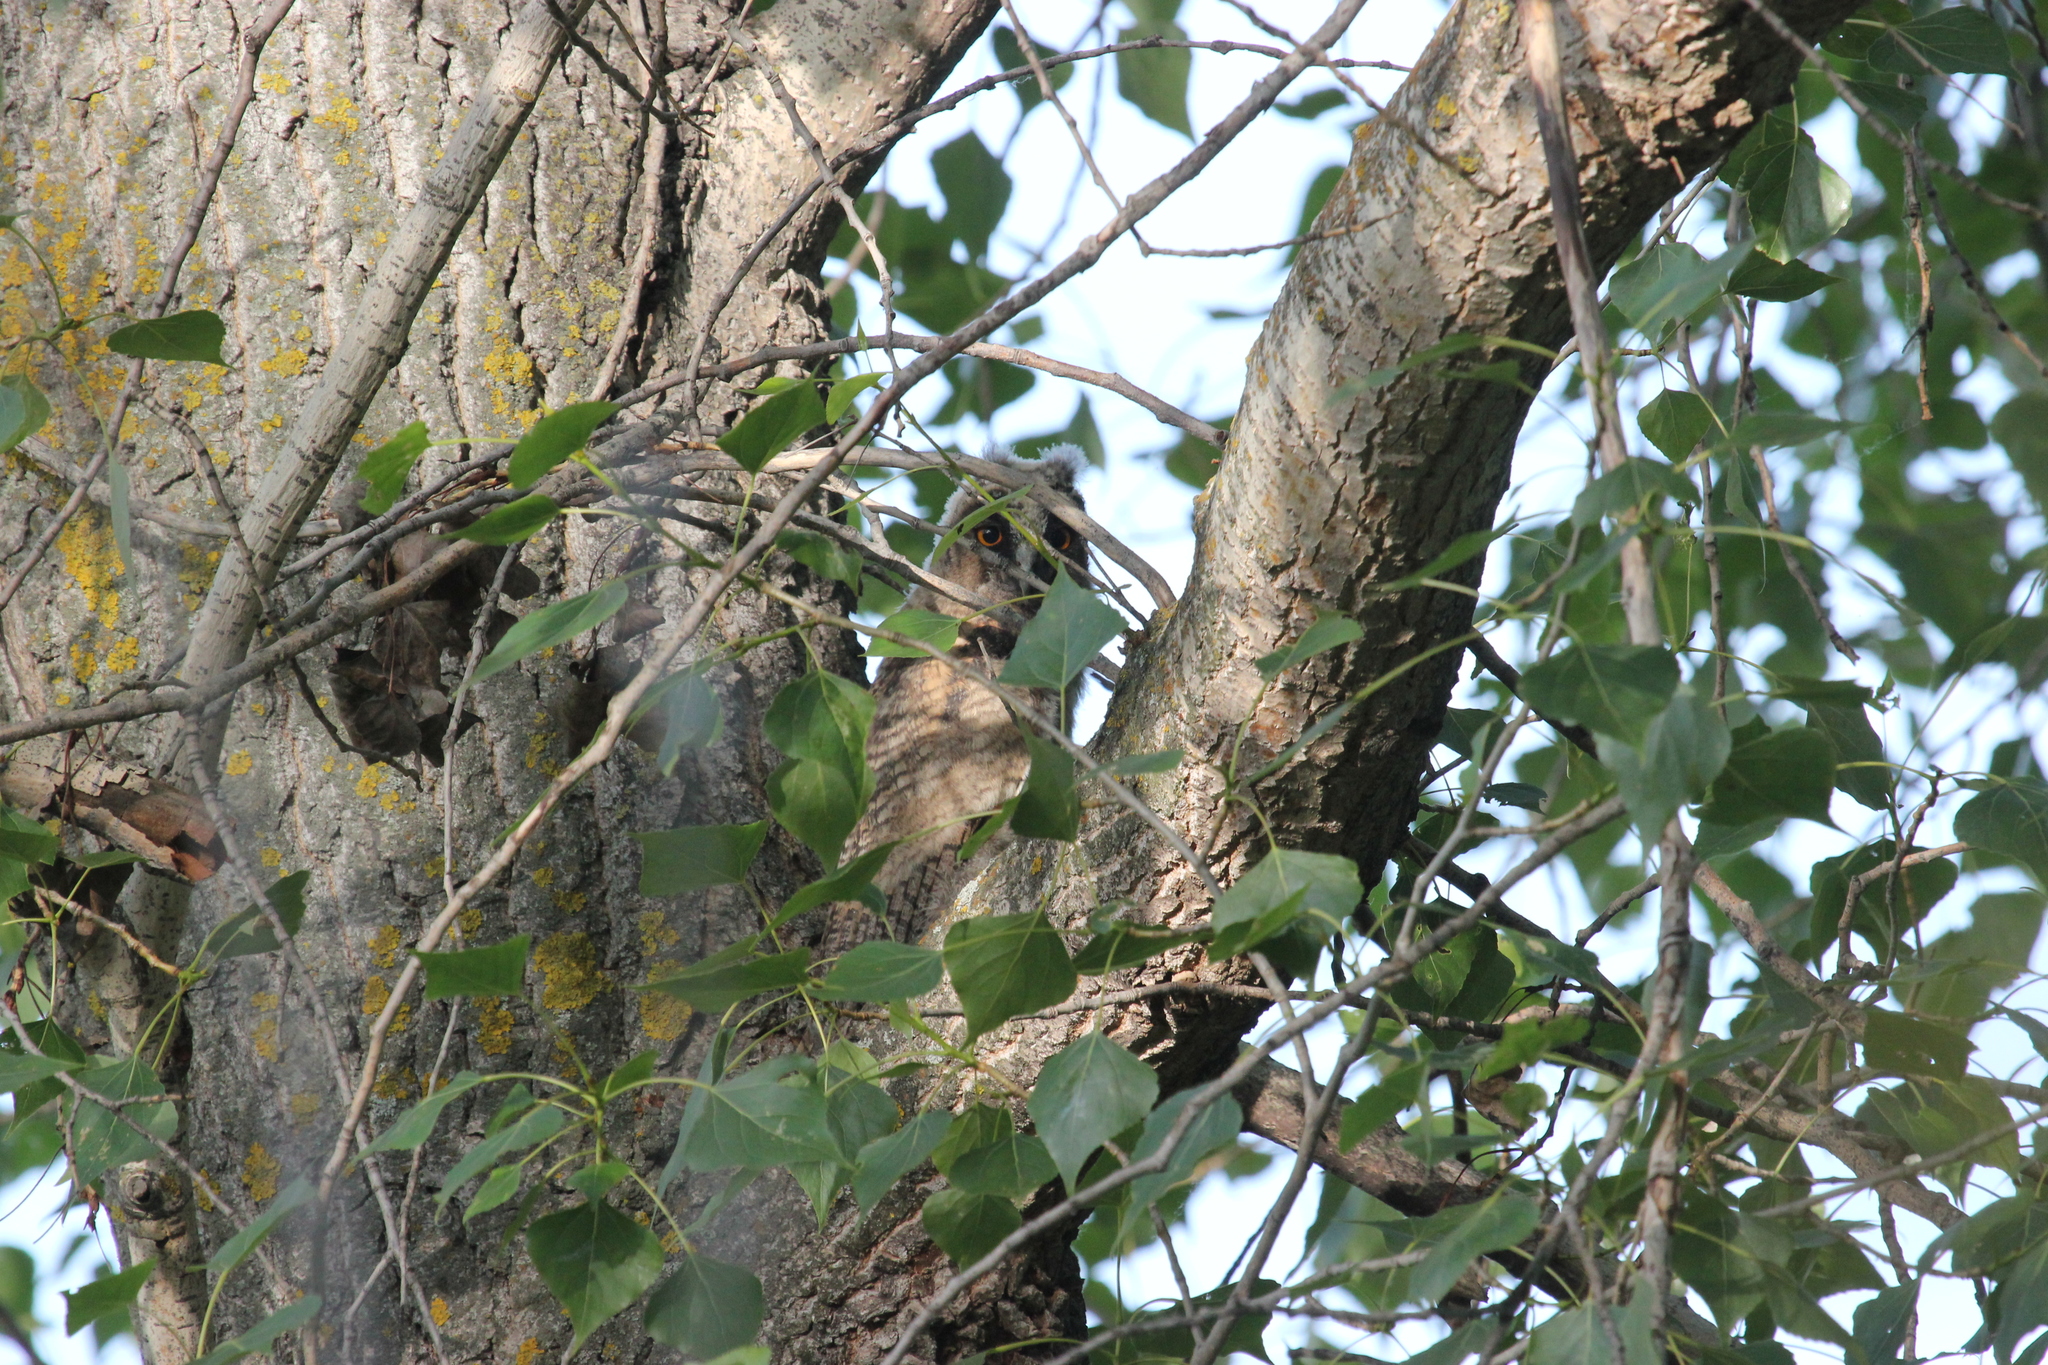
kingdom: Animalia
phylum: Chordata
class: Aves
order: Strigiformes
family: Strigidae
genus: Asio
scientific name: Asio otus
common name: Long-eared owl
